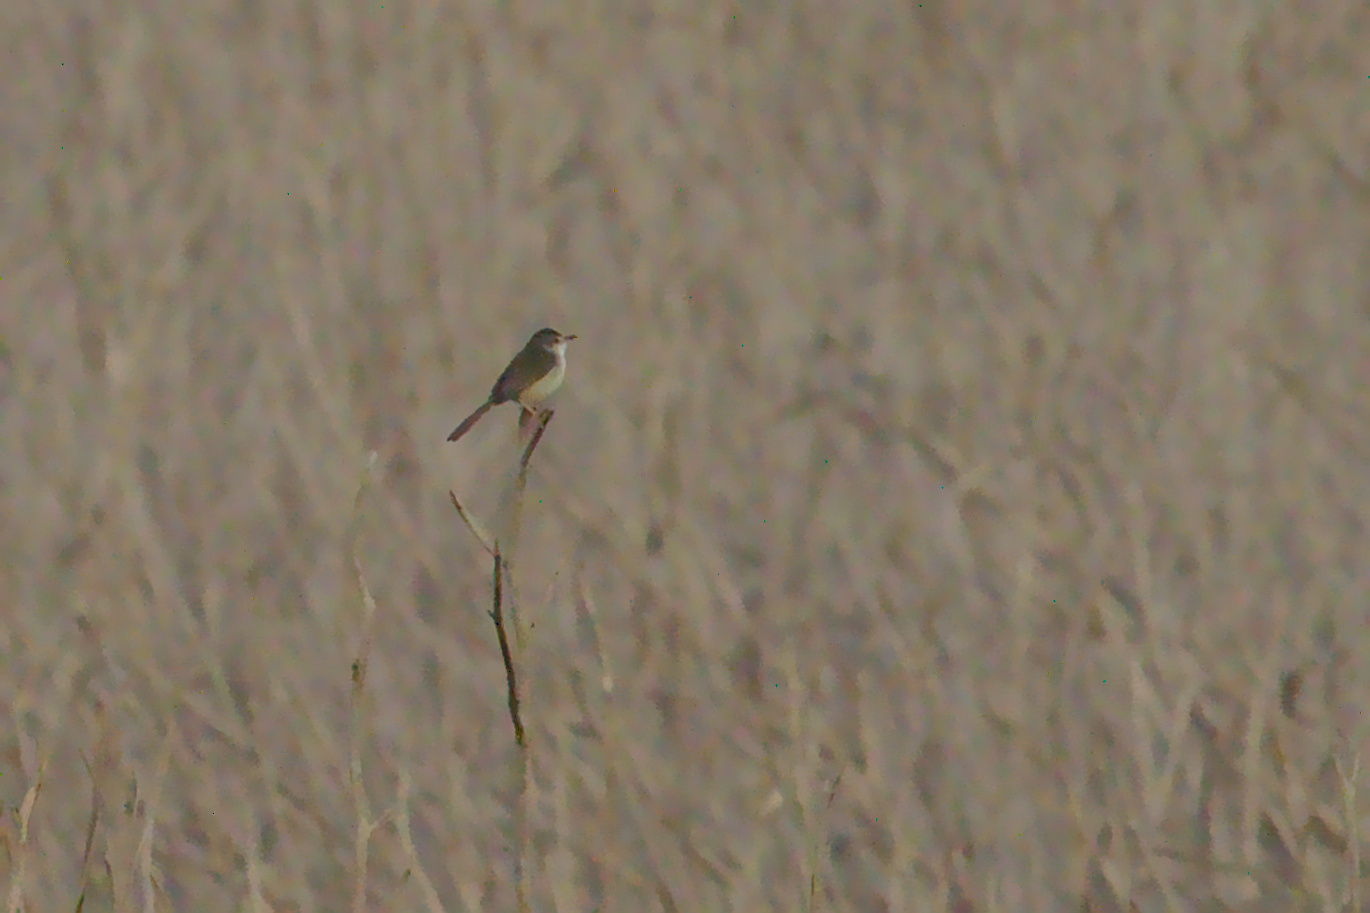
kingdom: Animalia
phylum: Chordata
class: Aves
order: Passeriformes
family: Cisticolidae
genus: Prinia
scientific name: Prinia inornata
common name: Plain prinia
